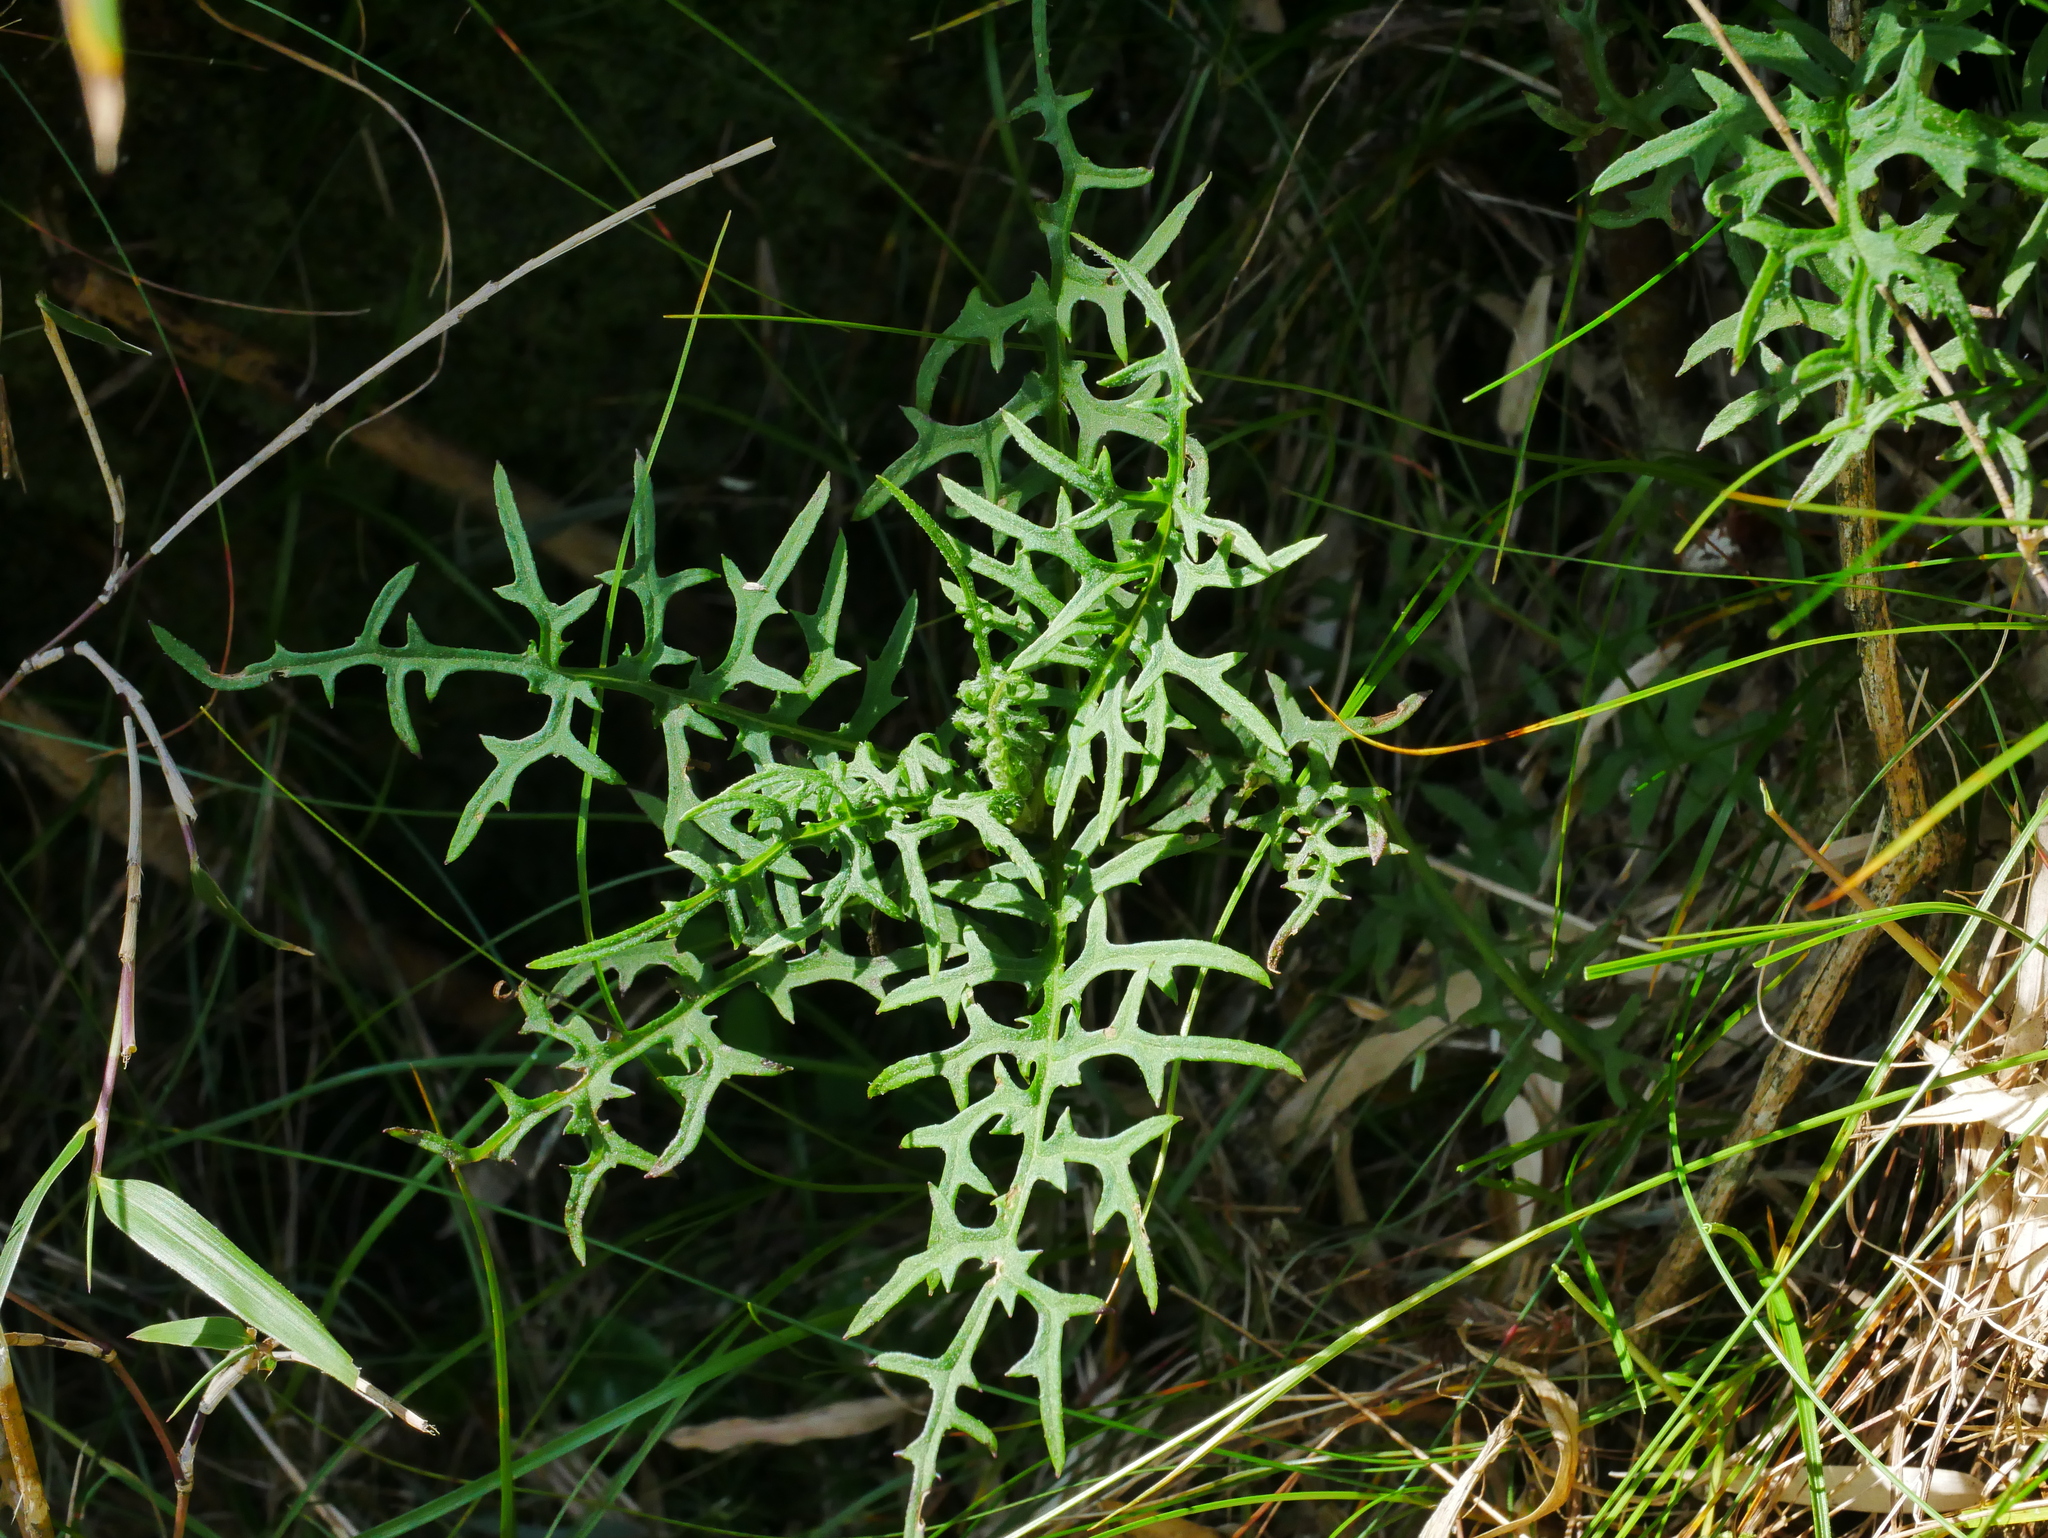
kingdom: Plantae
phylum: Tracheophyta
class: Magnoliopsida
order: Asterales
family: Asteraceae
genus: Jacobaea
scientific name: Jacobaea kuanshanensis
